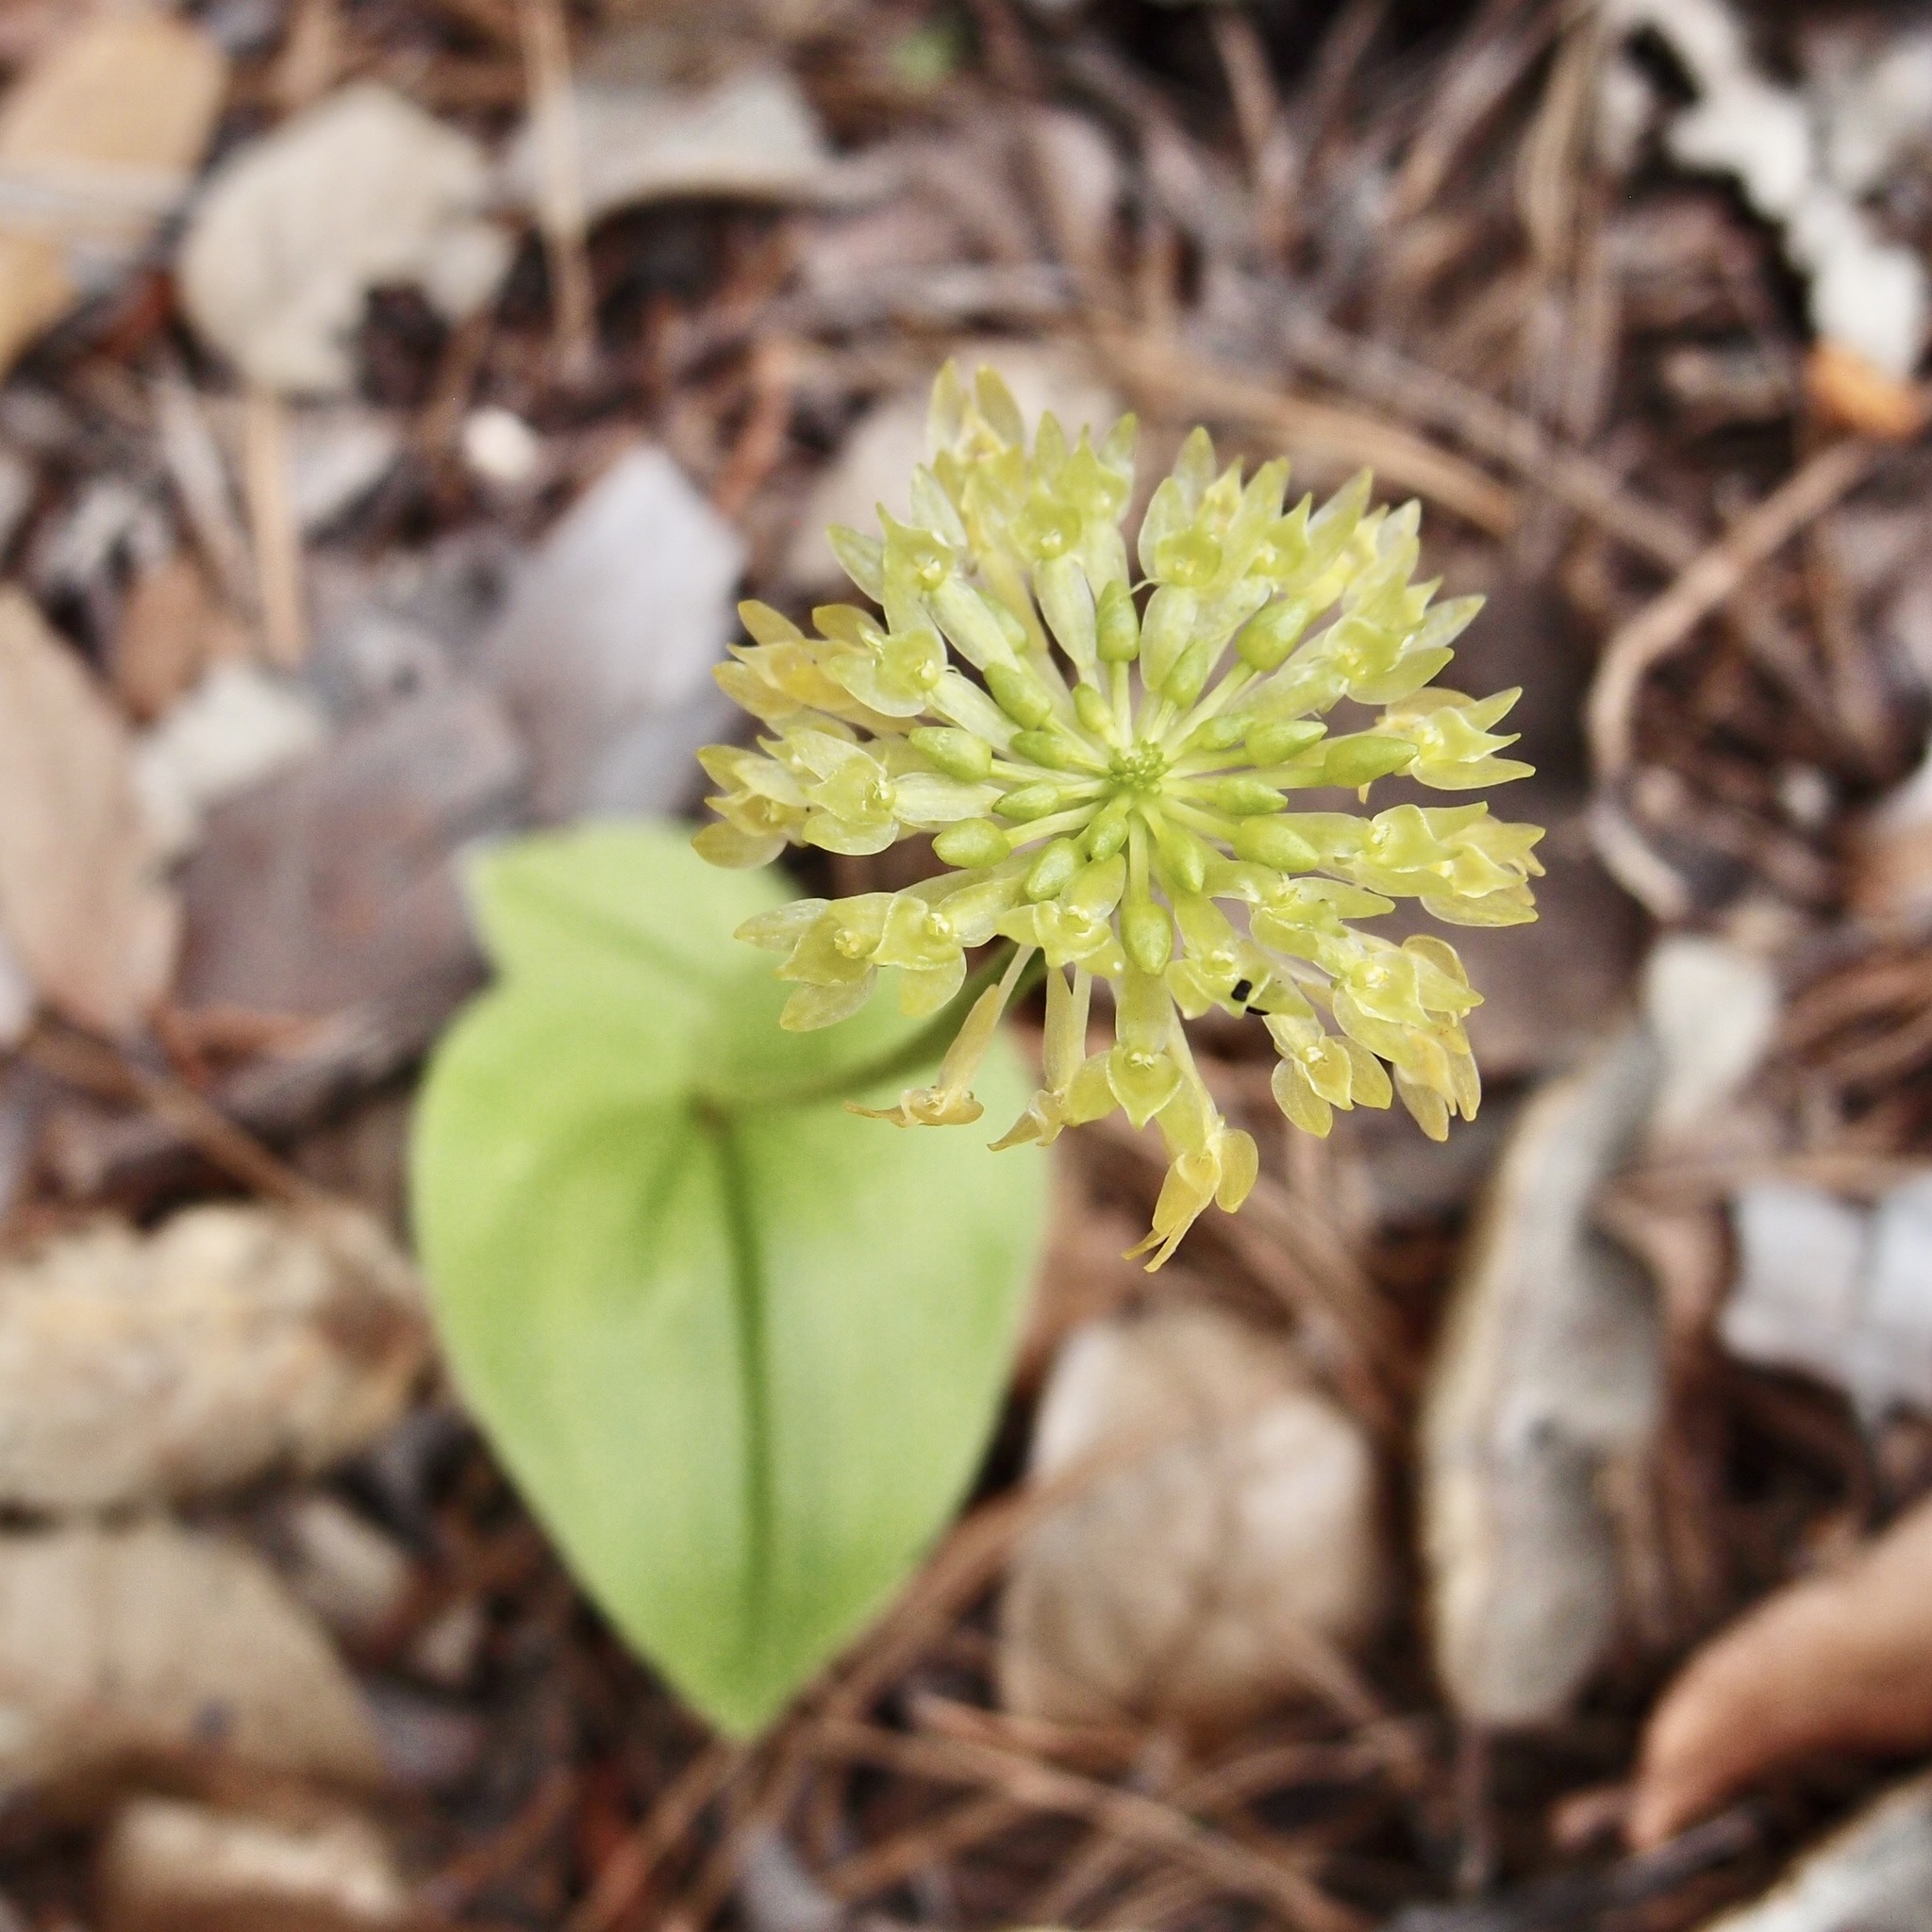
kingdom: Plantae
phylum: Tracheophyta
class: Liliopsida
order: Asparagales
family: Orchidaceae
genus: Malaxis
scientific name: Malaxis brachystachys
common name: Huachuca adder's-mouth
